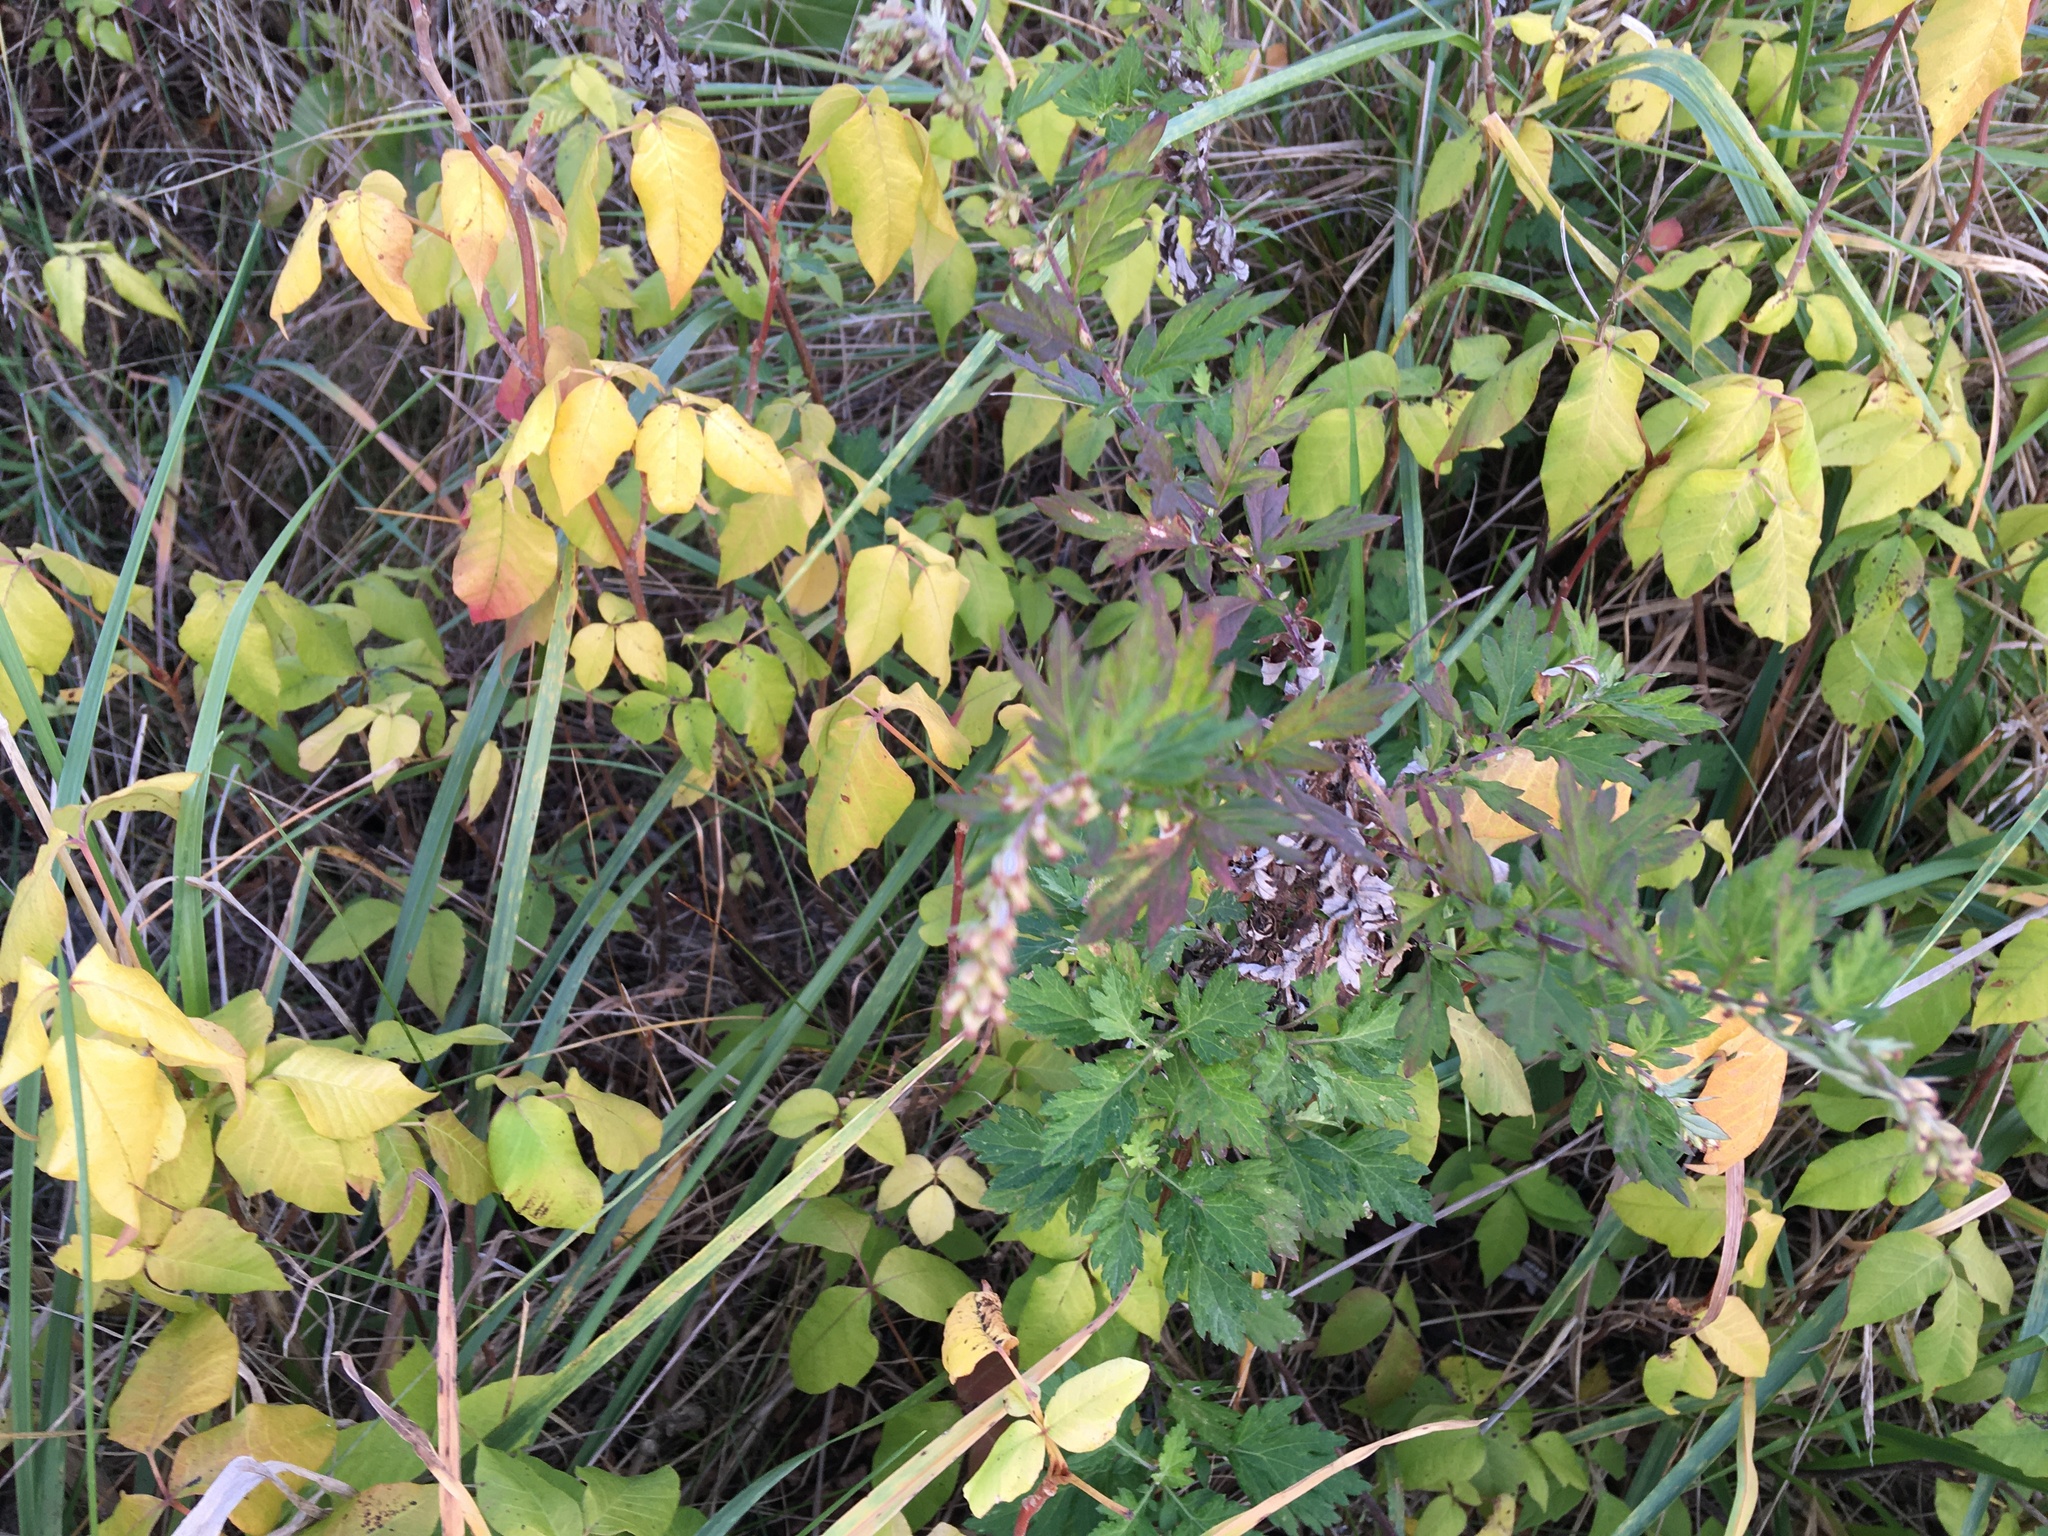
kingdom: Plantae
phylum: Tracheophyta
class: Magnoliopsida
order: Asterales
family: Asteraceae
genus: Artemisia
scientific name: Artemisia vulgaris
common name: Mugwort
